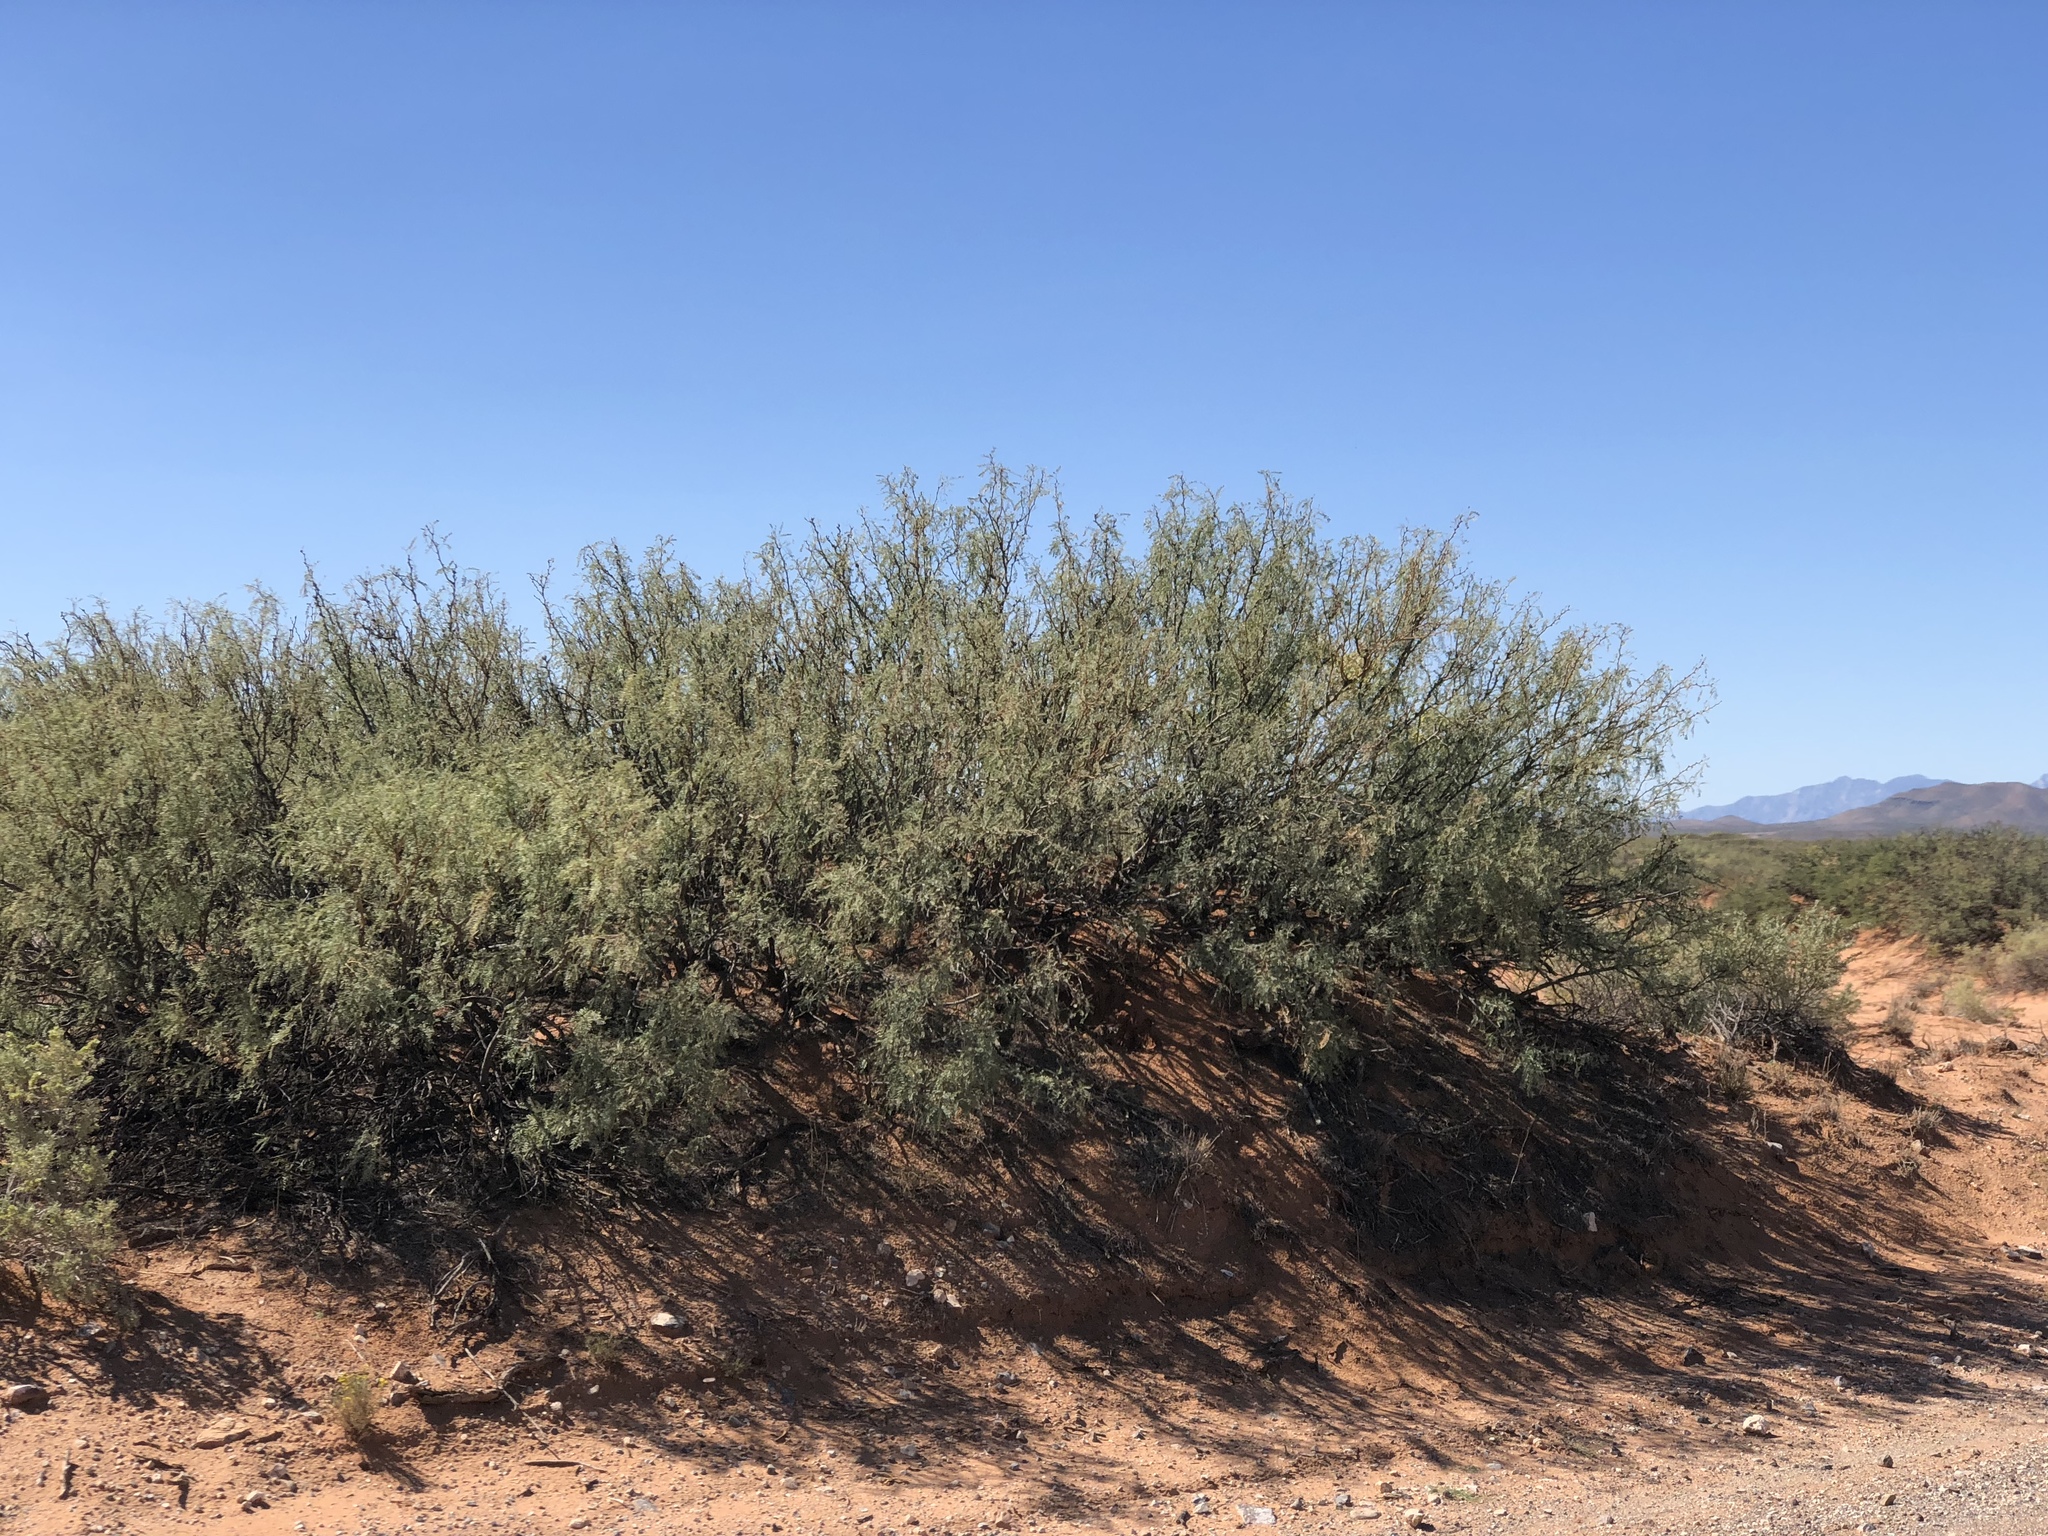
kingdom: Plantae
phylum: Tracheophyta
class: Magnoliopsida
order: Fabales
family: Fabaceae
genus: Prosopis
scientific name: Prosopis glandulosa
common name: Honey mesquite
